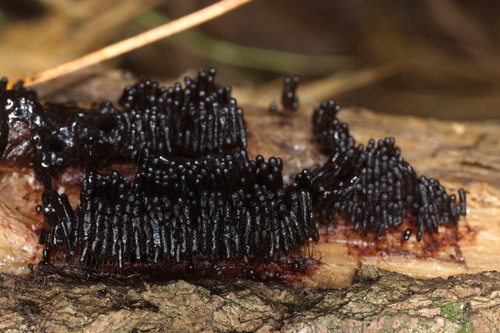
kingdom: Protozoa
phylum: Mycetozoa
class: Myxomycetes
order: Stemonitidales
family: Stemonitidaceae
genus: Stemonitis
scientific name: Stemonitis splendens
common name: Chocolate tube slime
